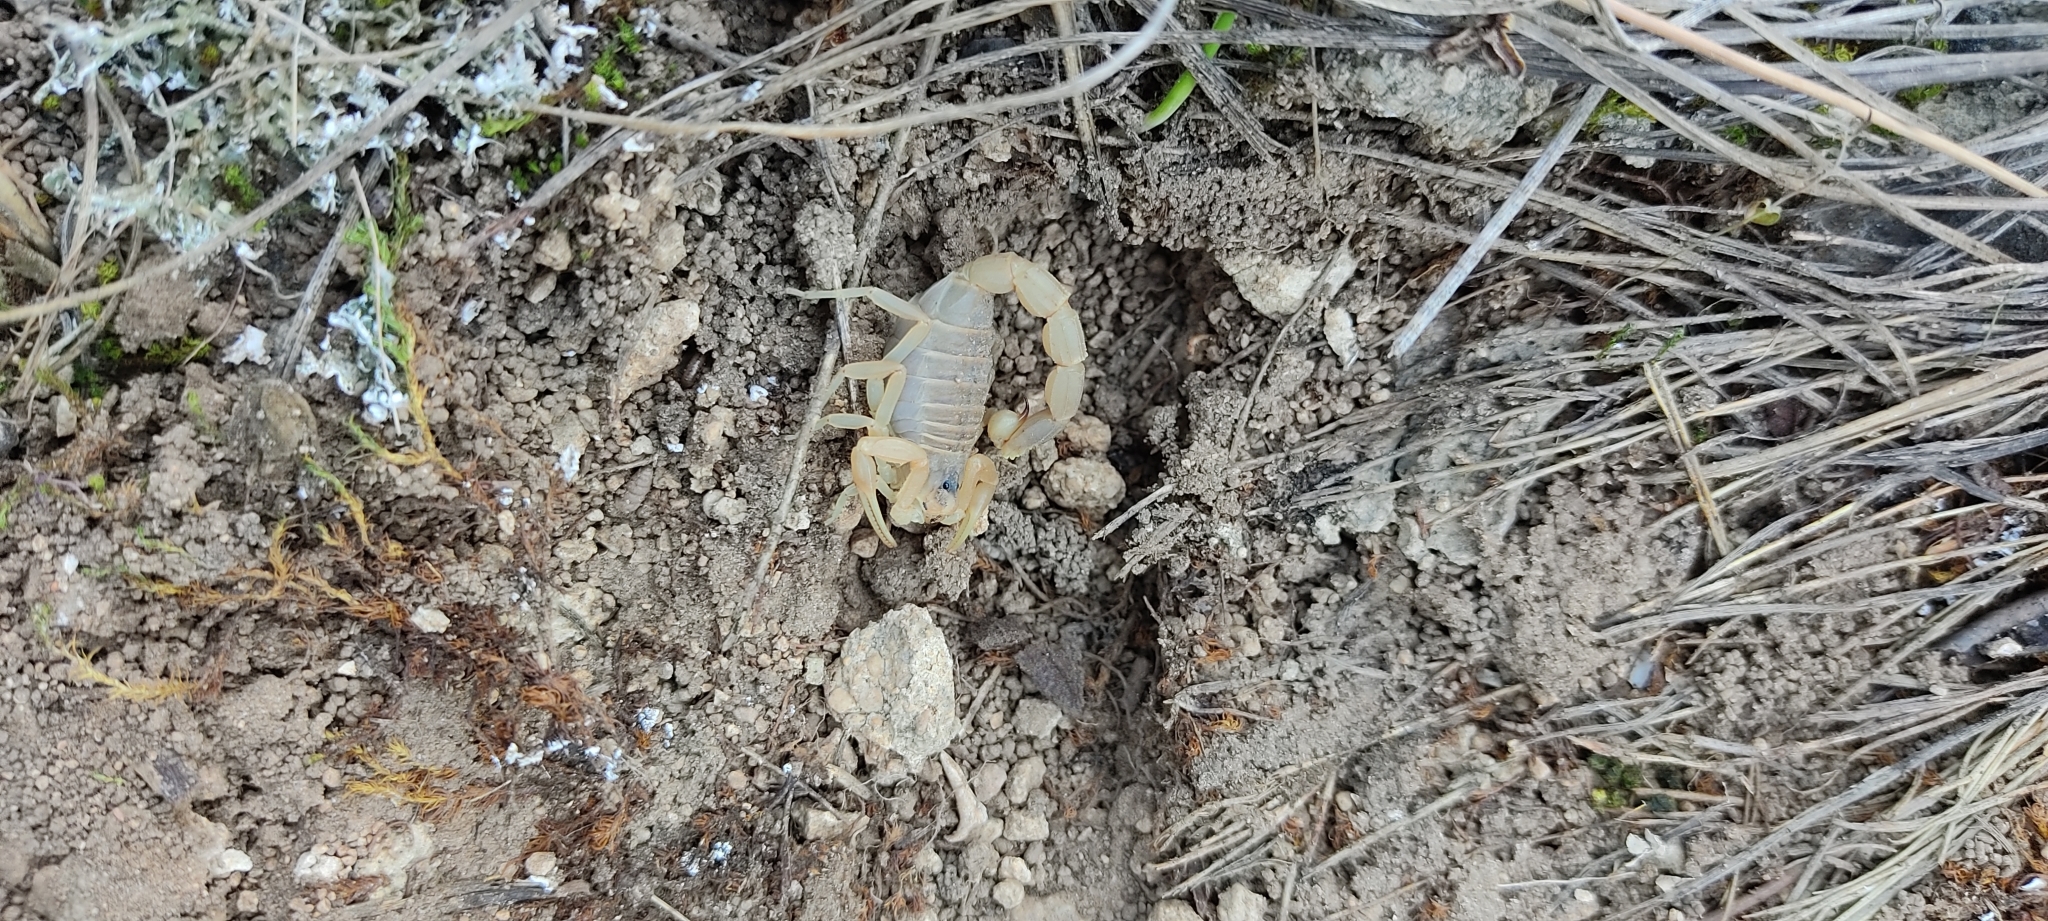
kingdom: Animalia
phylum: Arthropoda
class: Arachnida
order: Scorpiones
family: Buthidae
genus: Buthus
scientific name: Buthus occitanus
